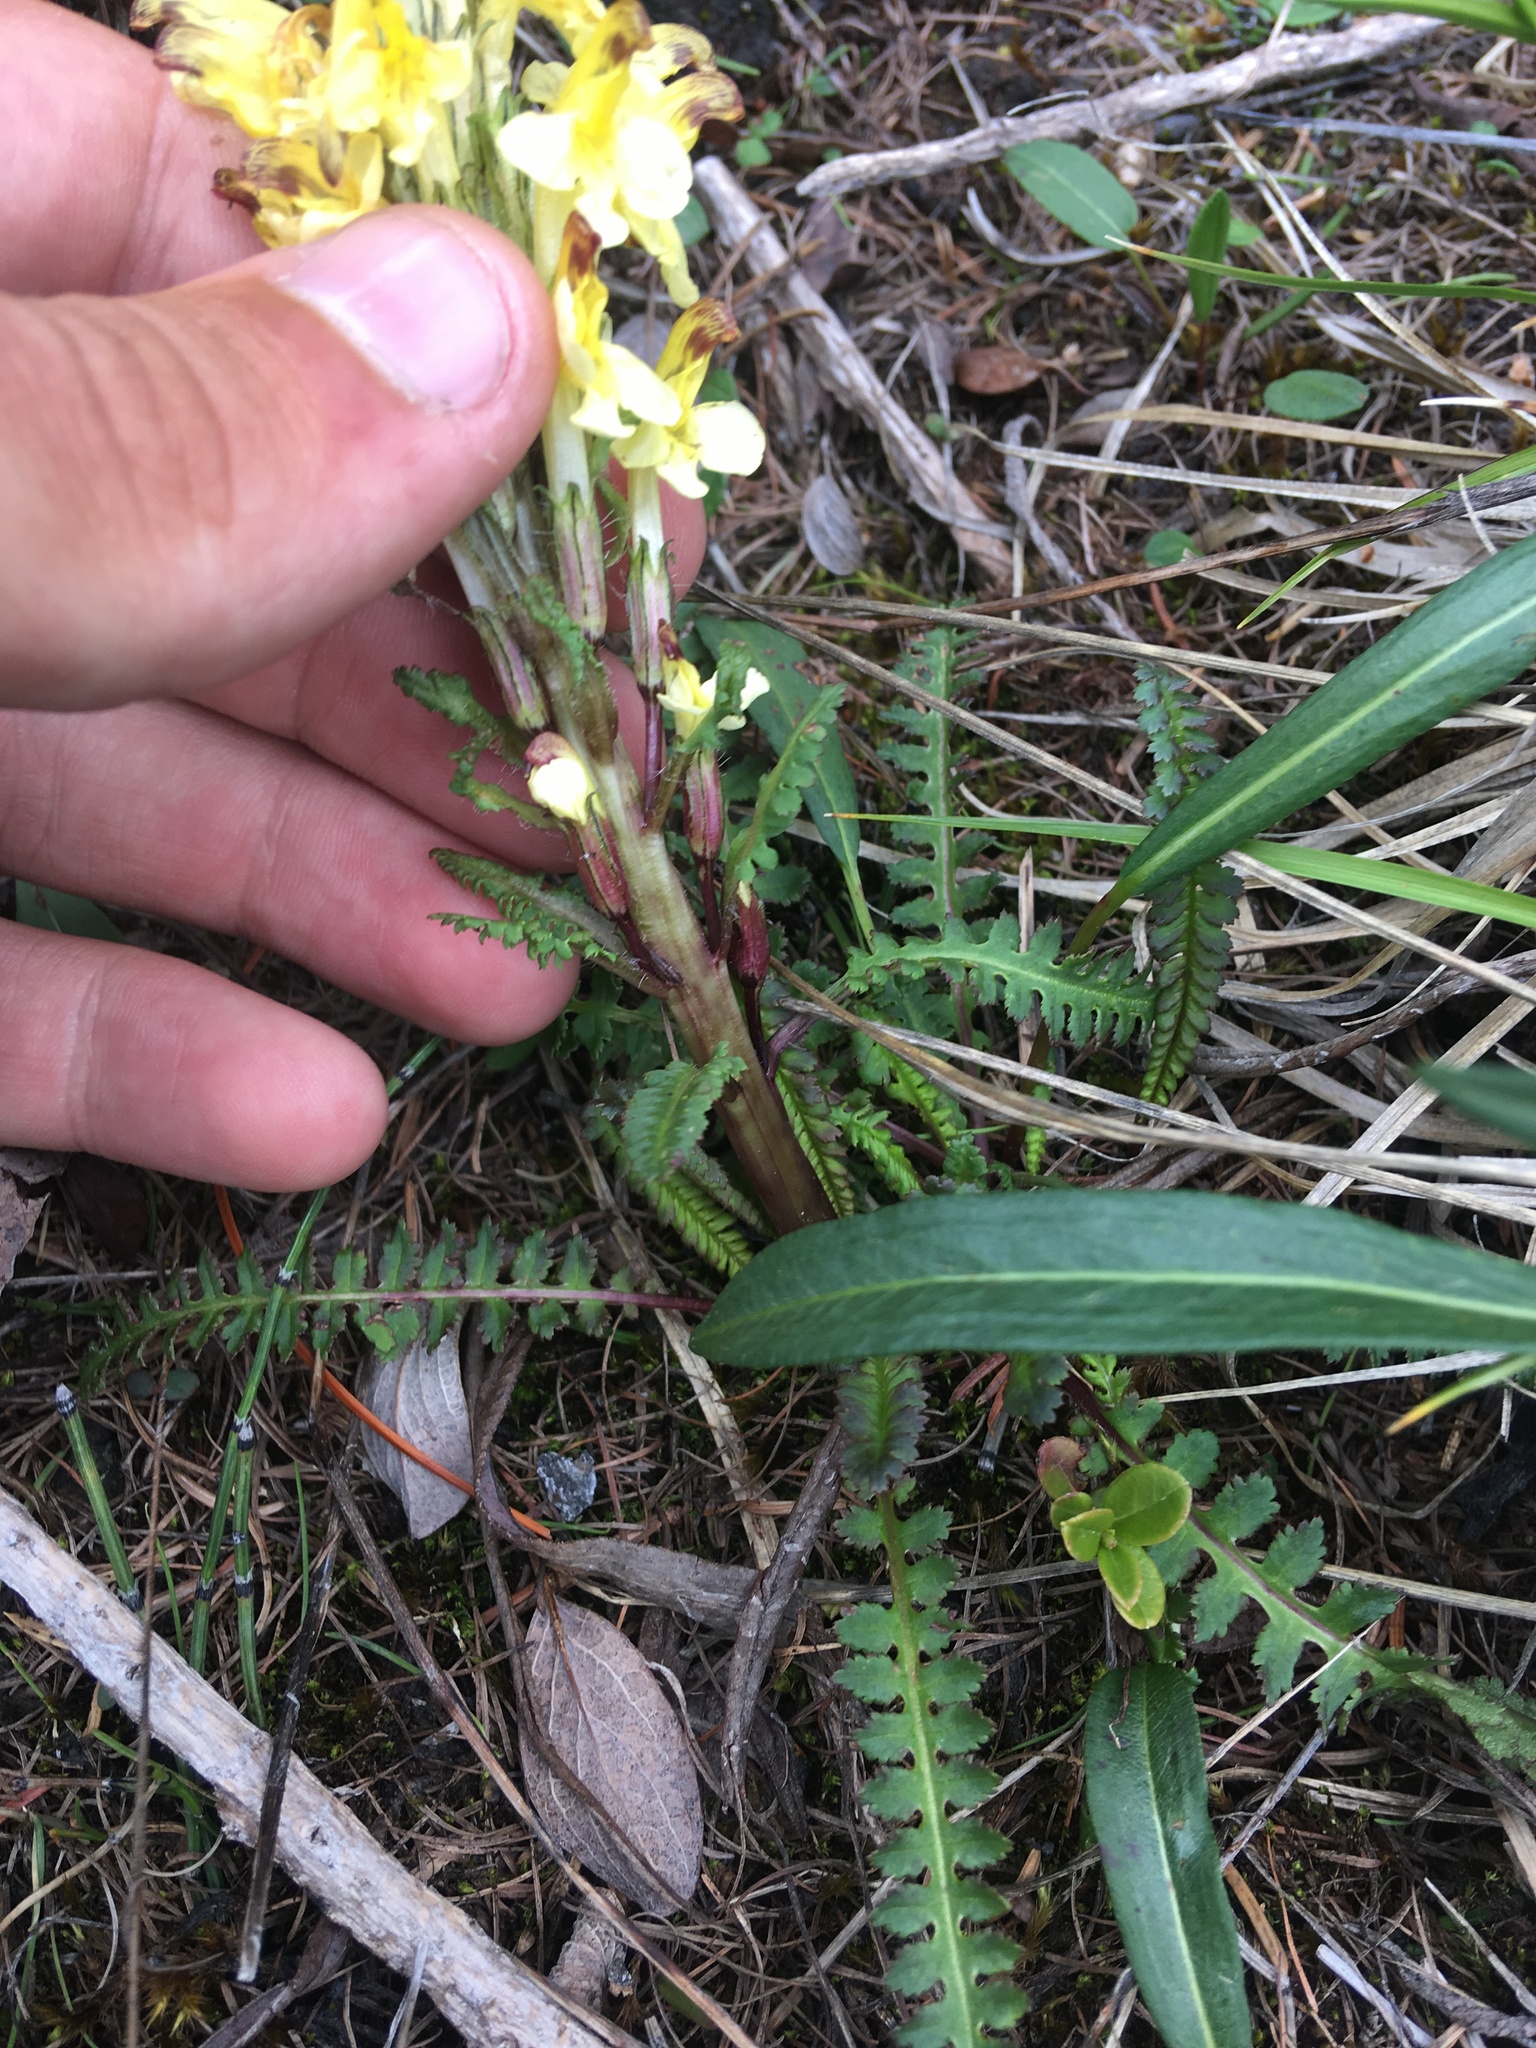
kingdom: Plantae
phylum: Tracheophyta
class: Magnoliopsida
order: Lamiales
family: Orobanchaceae
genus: Pedicularis
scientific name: Pedicularis oederi
